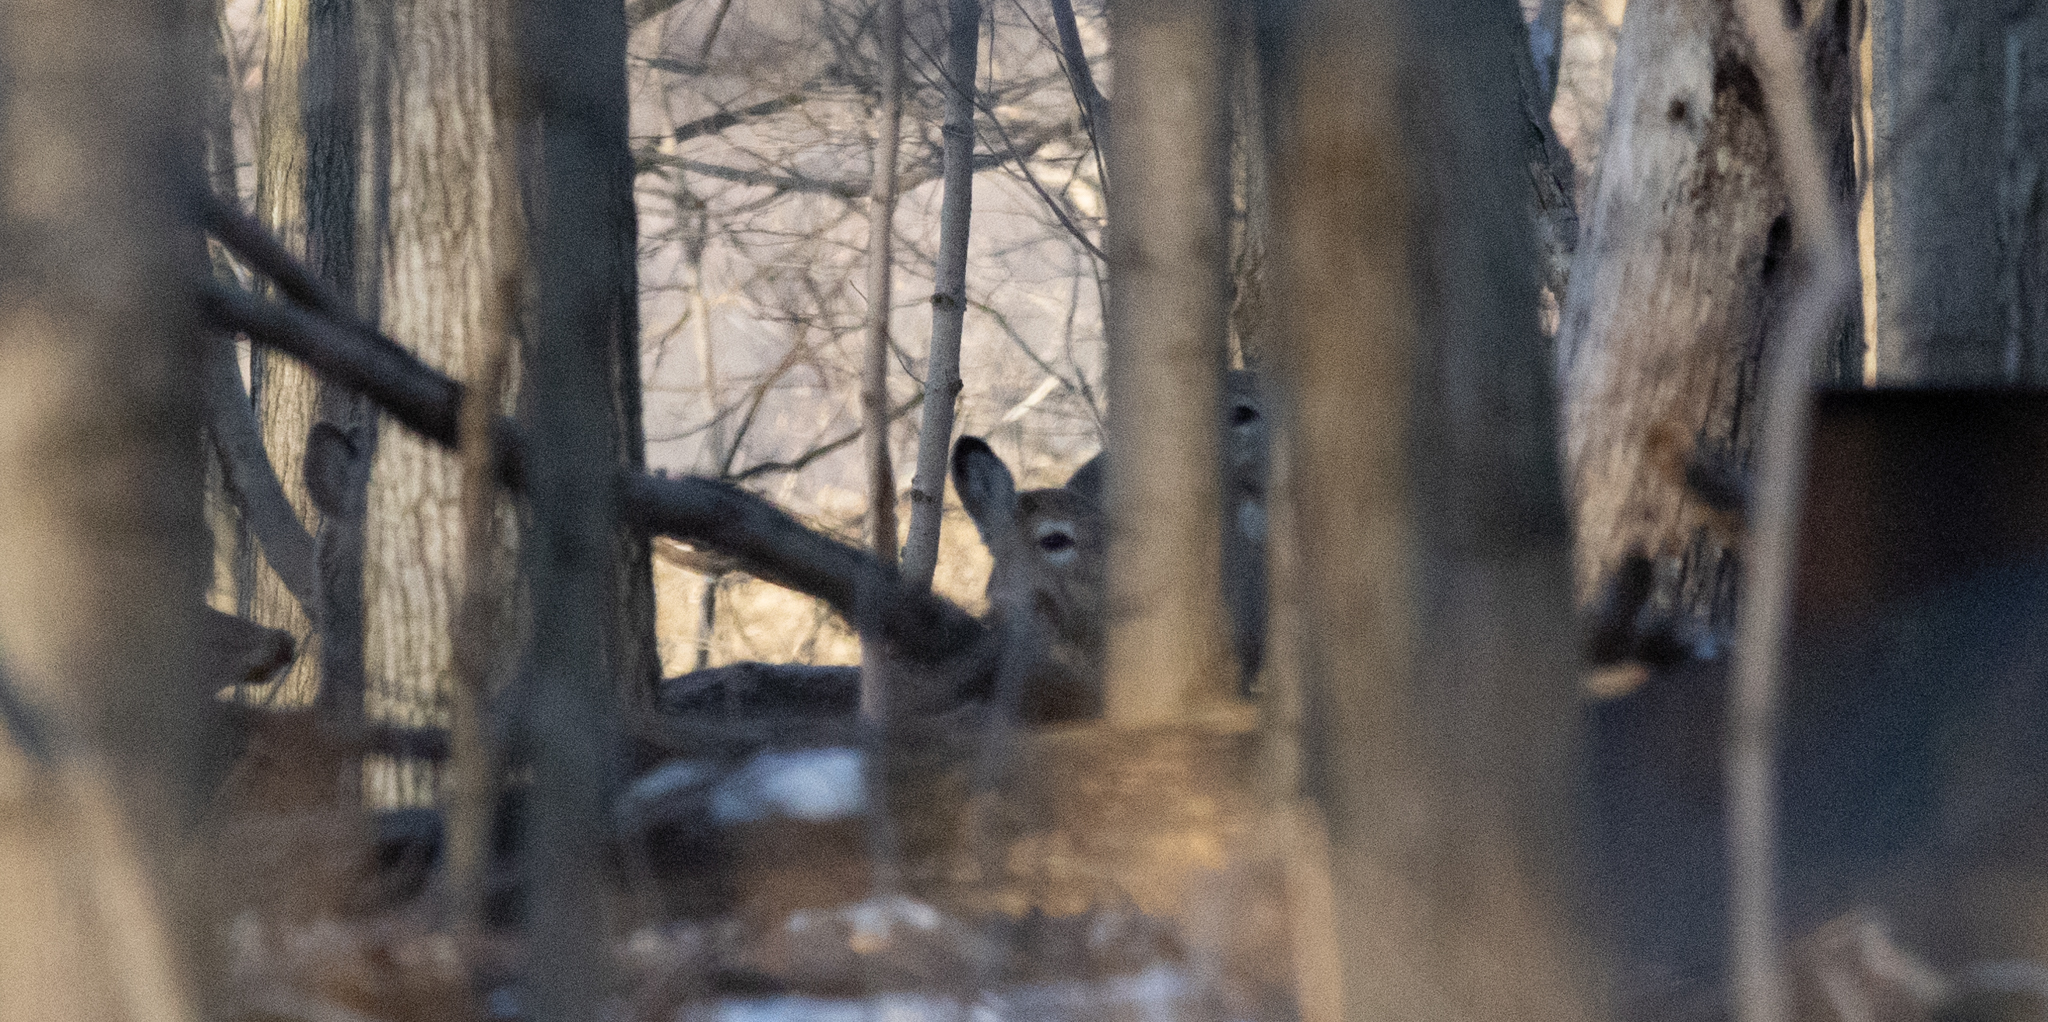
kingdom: Animalia
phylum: Chordata
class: Mammalia
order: Artiodactyla
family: Cervidae
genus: Odocoileus
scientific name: Odocoileus virginianus
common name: White-tailed deer
